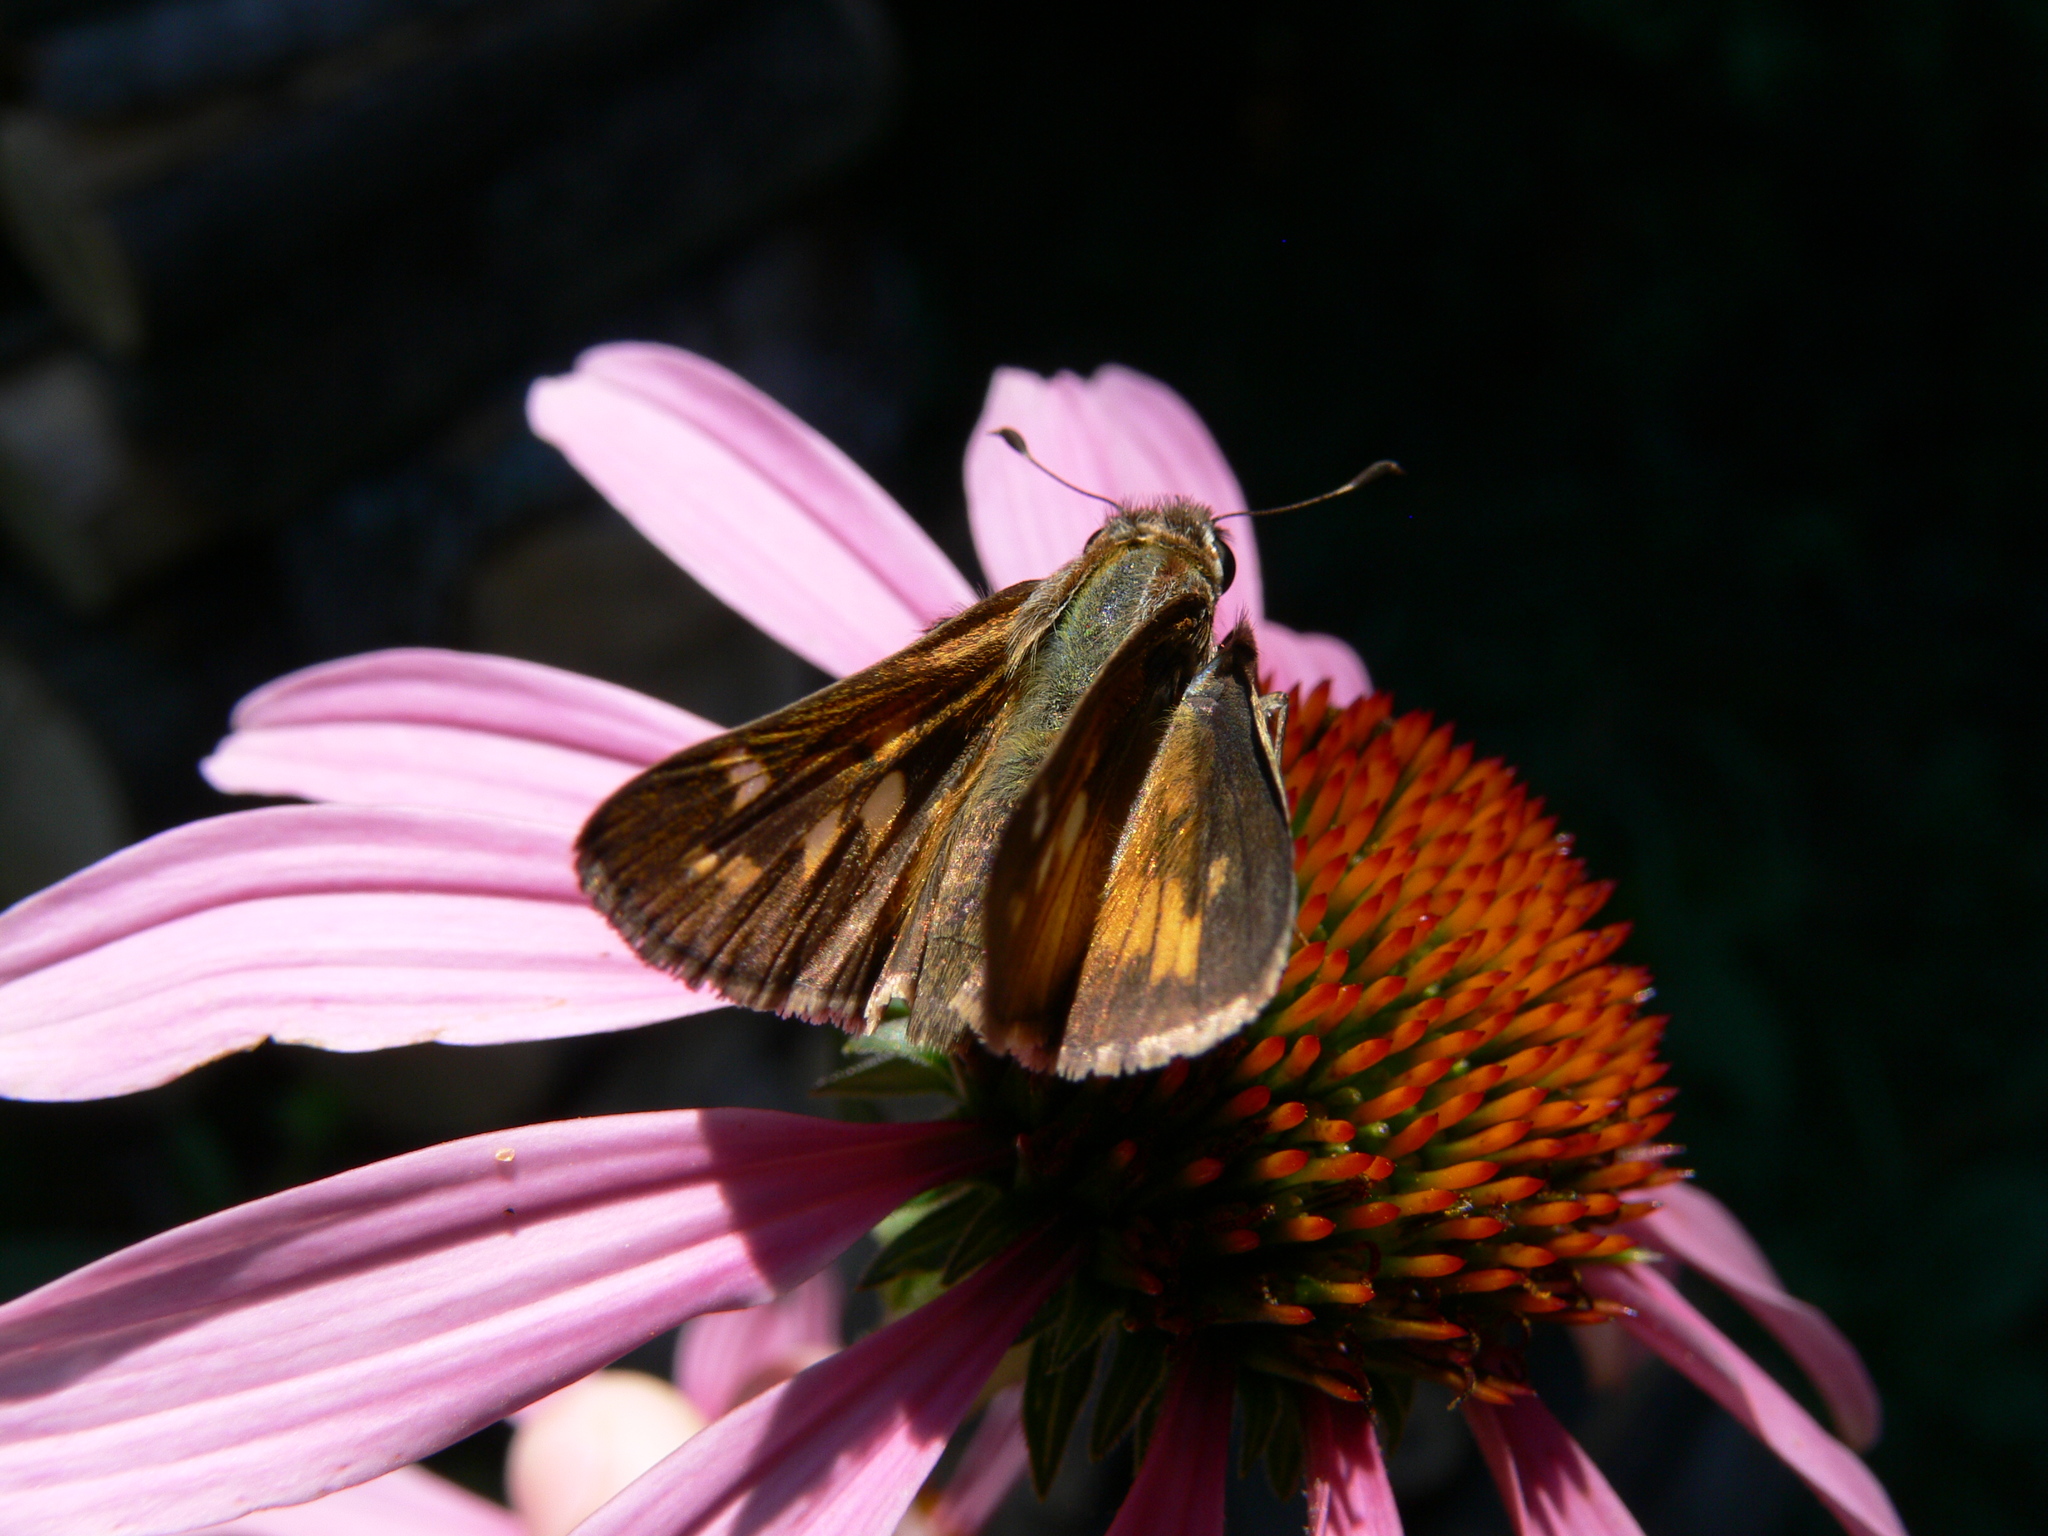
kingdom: Animalia
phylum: Arthropoda
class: Insecta
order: Lepidoptera
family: Hesperiidae
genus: Atalopedes
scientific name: Atalopedes
